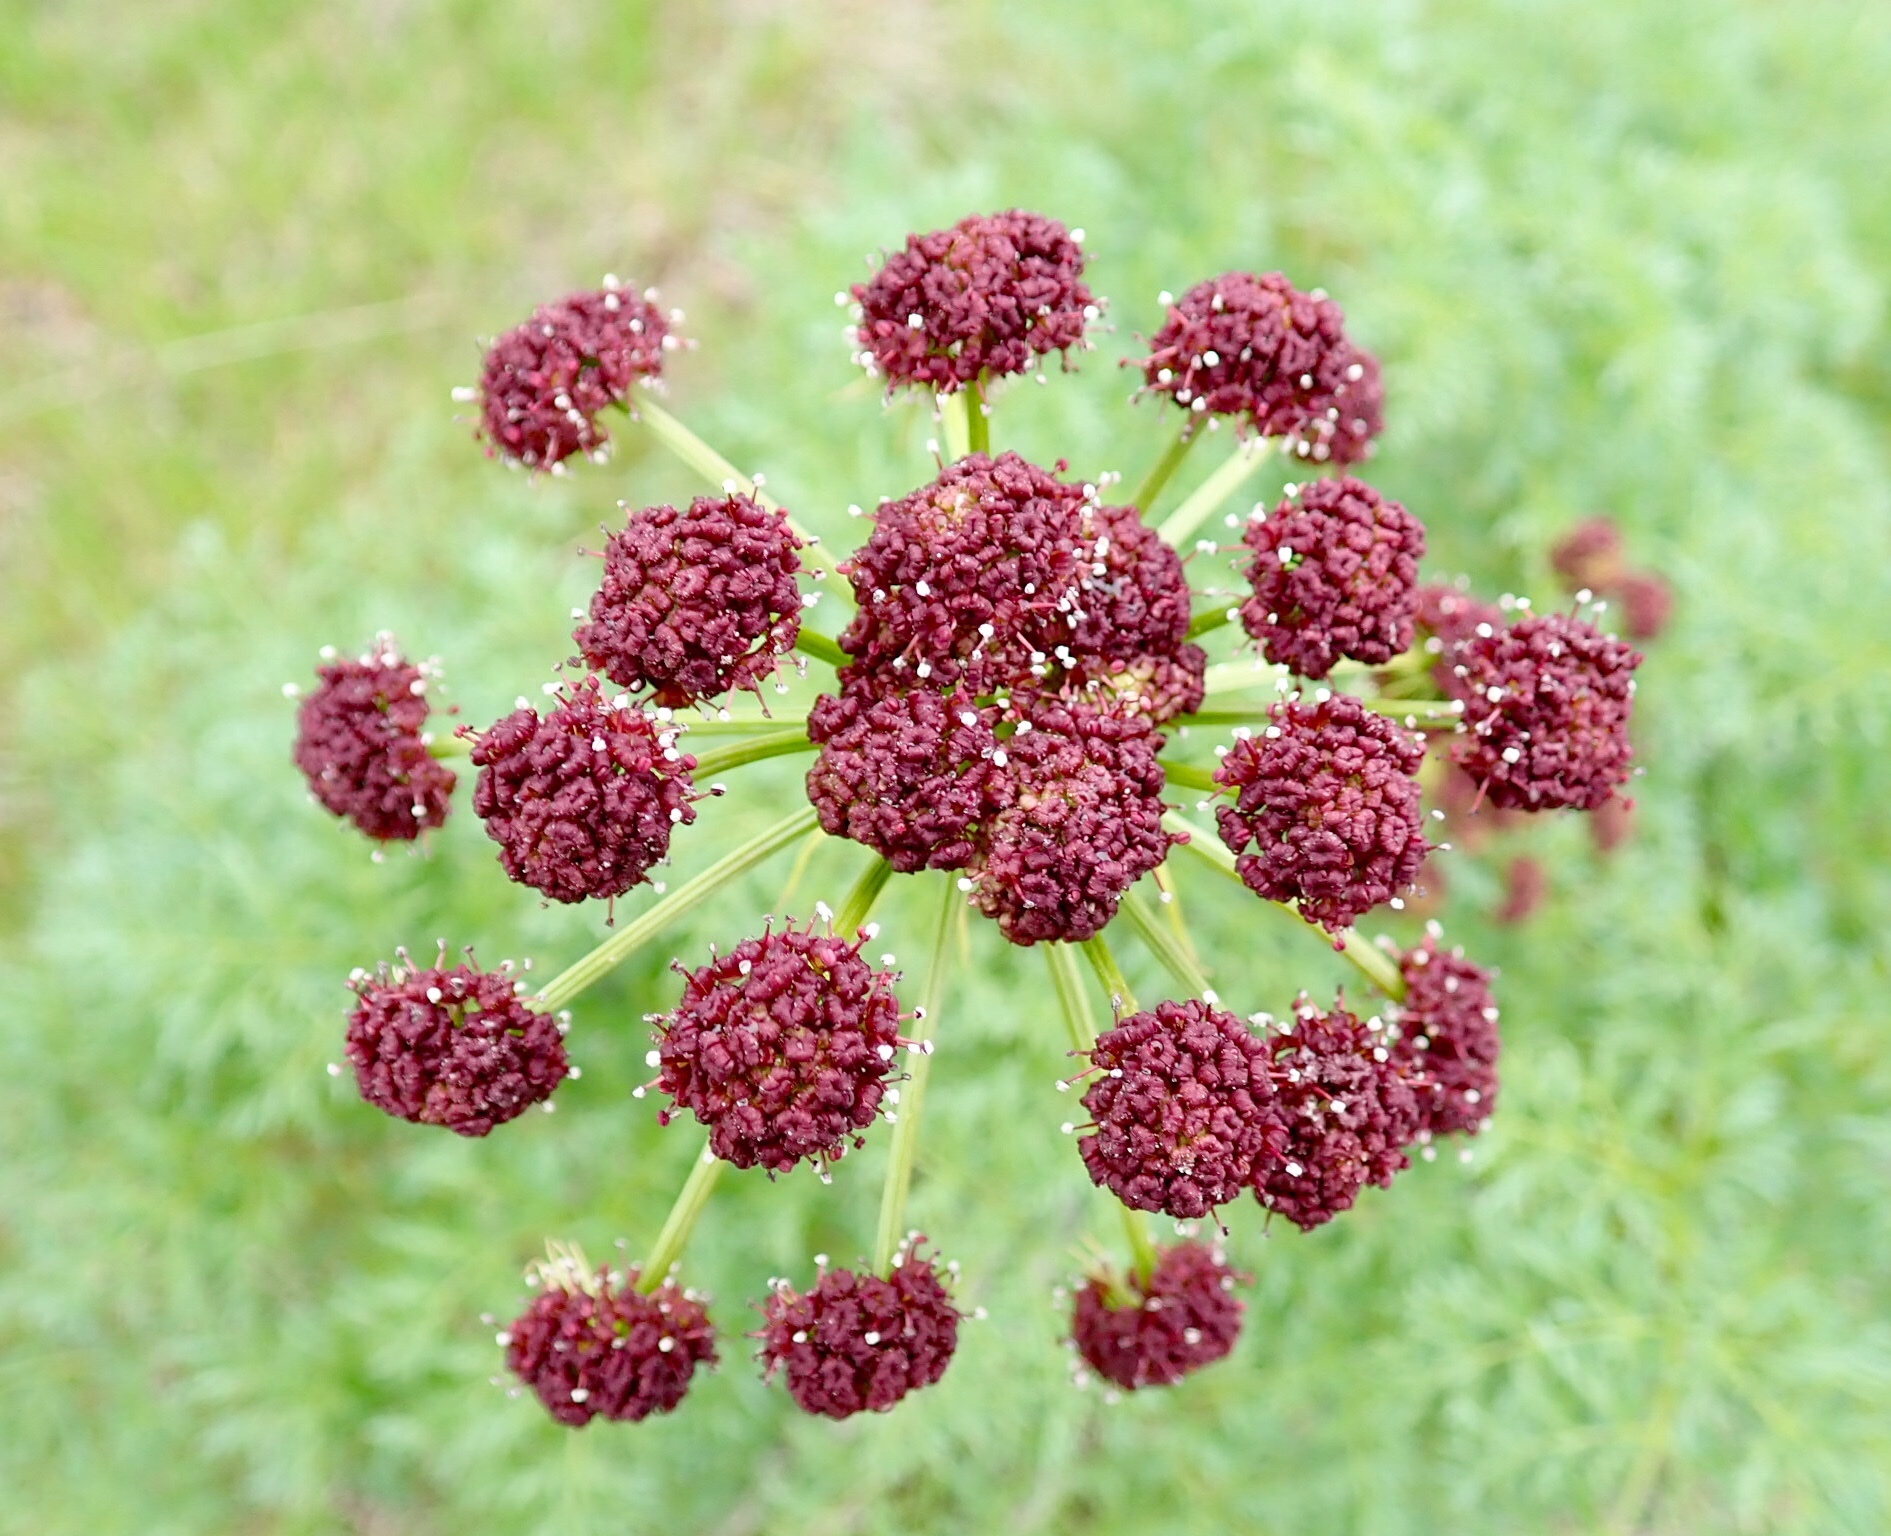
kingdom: Plantae
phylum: Tracheophyta
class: Magnoliopsida
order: Apiales
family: Apiaceae
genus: Lomatium
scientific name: Lomatium dissectum
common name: Lomatium
